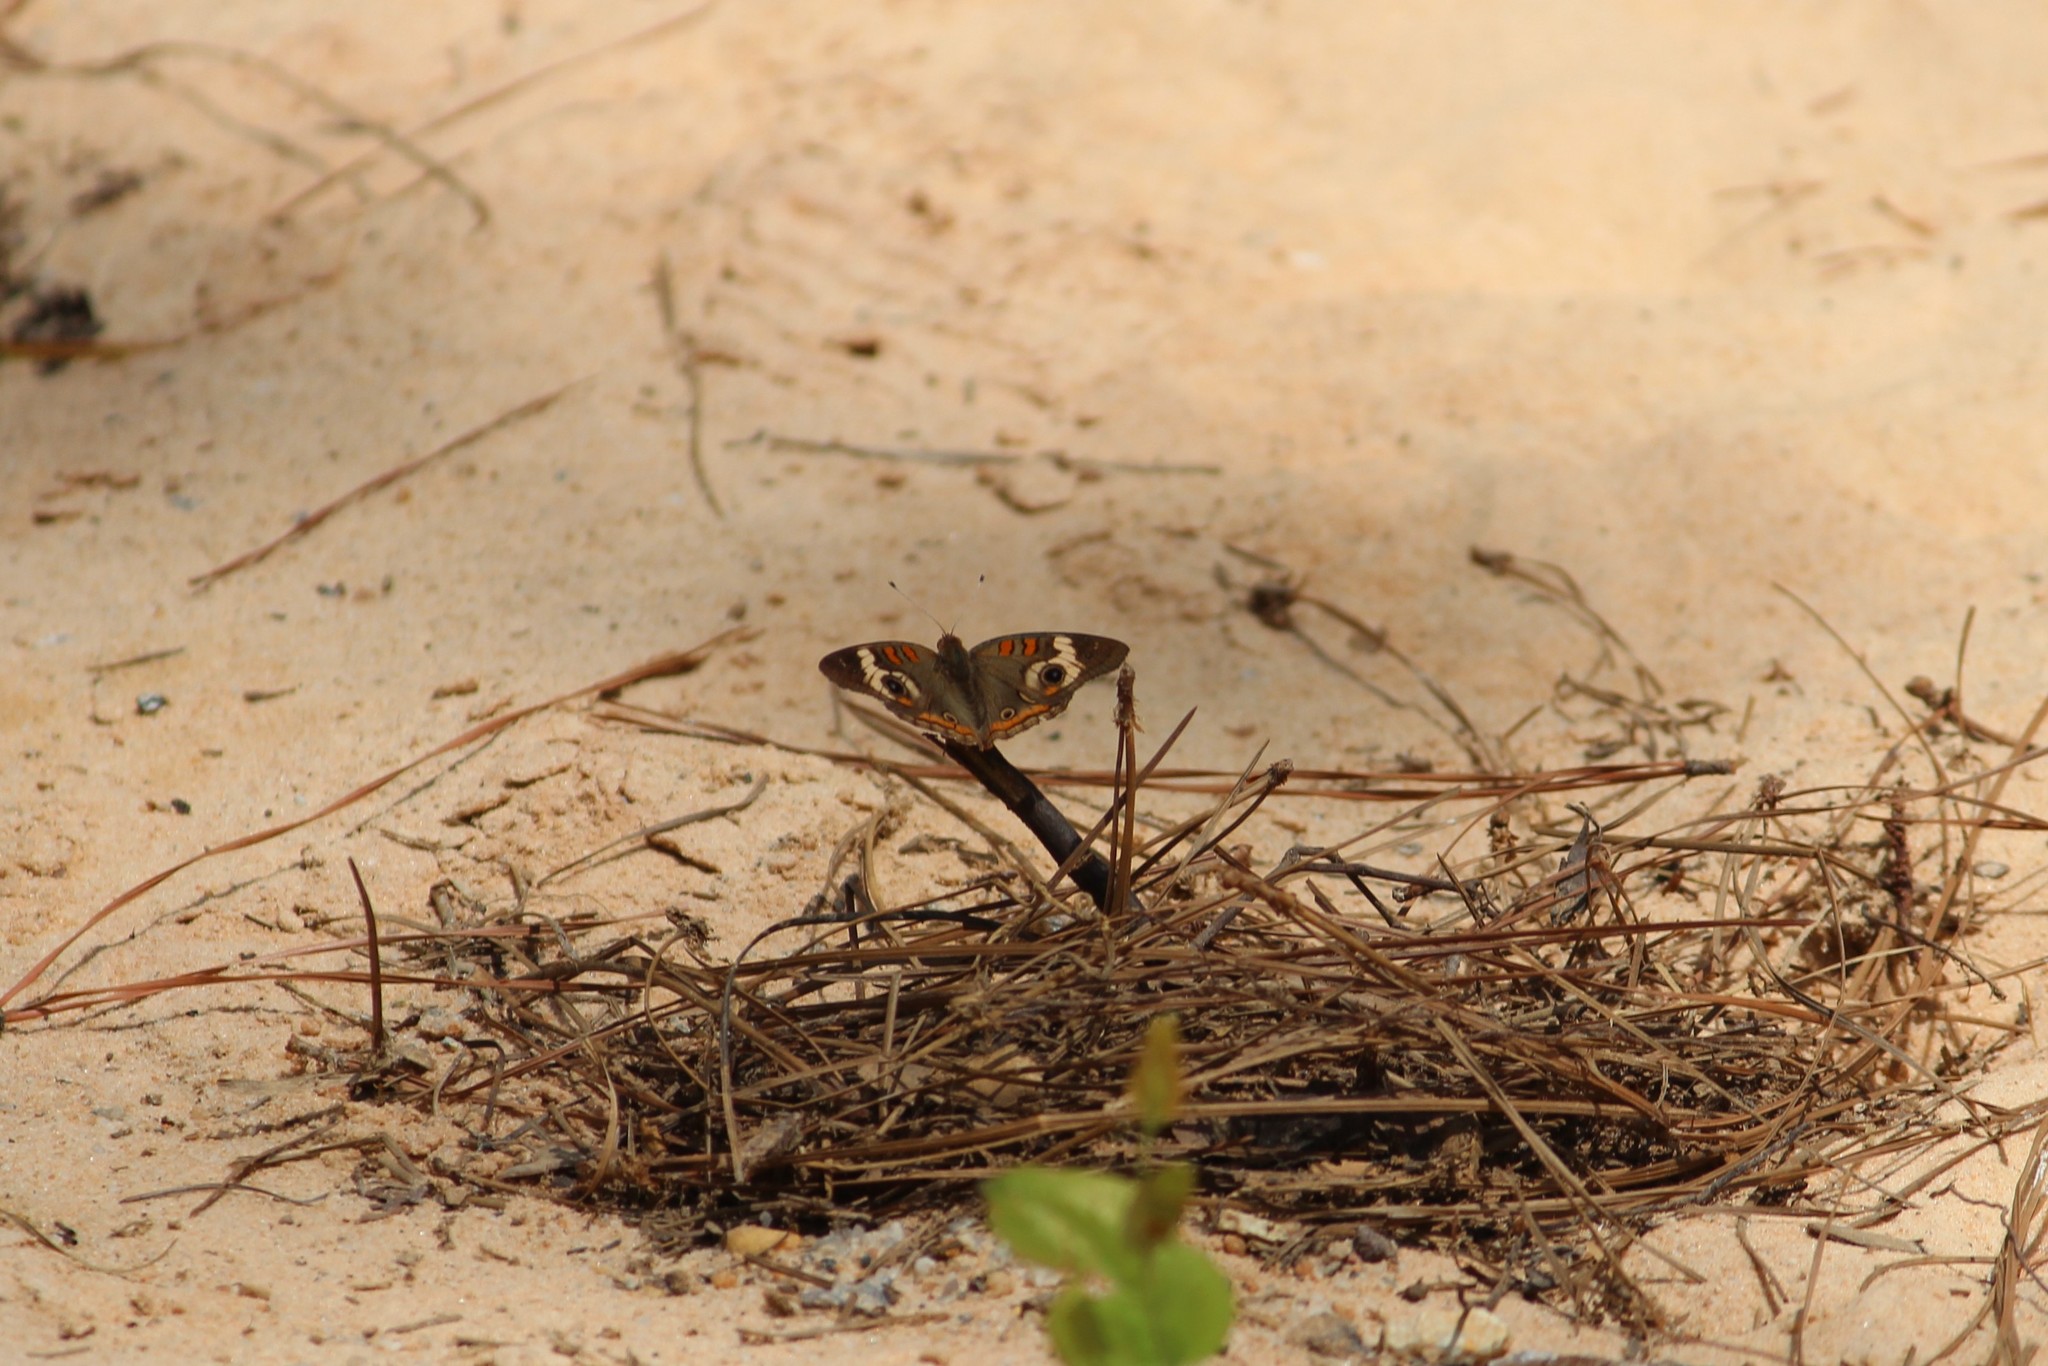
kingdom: Animalia
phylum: Arthropoda
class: Insecta
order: Lepidoptera
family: Nymphalidae
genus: Junonia
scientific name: Junonia coenia
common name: Common buckeye
